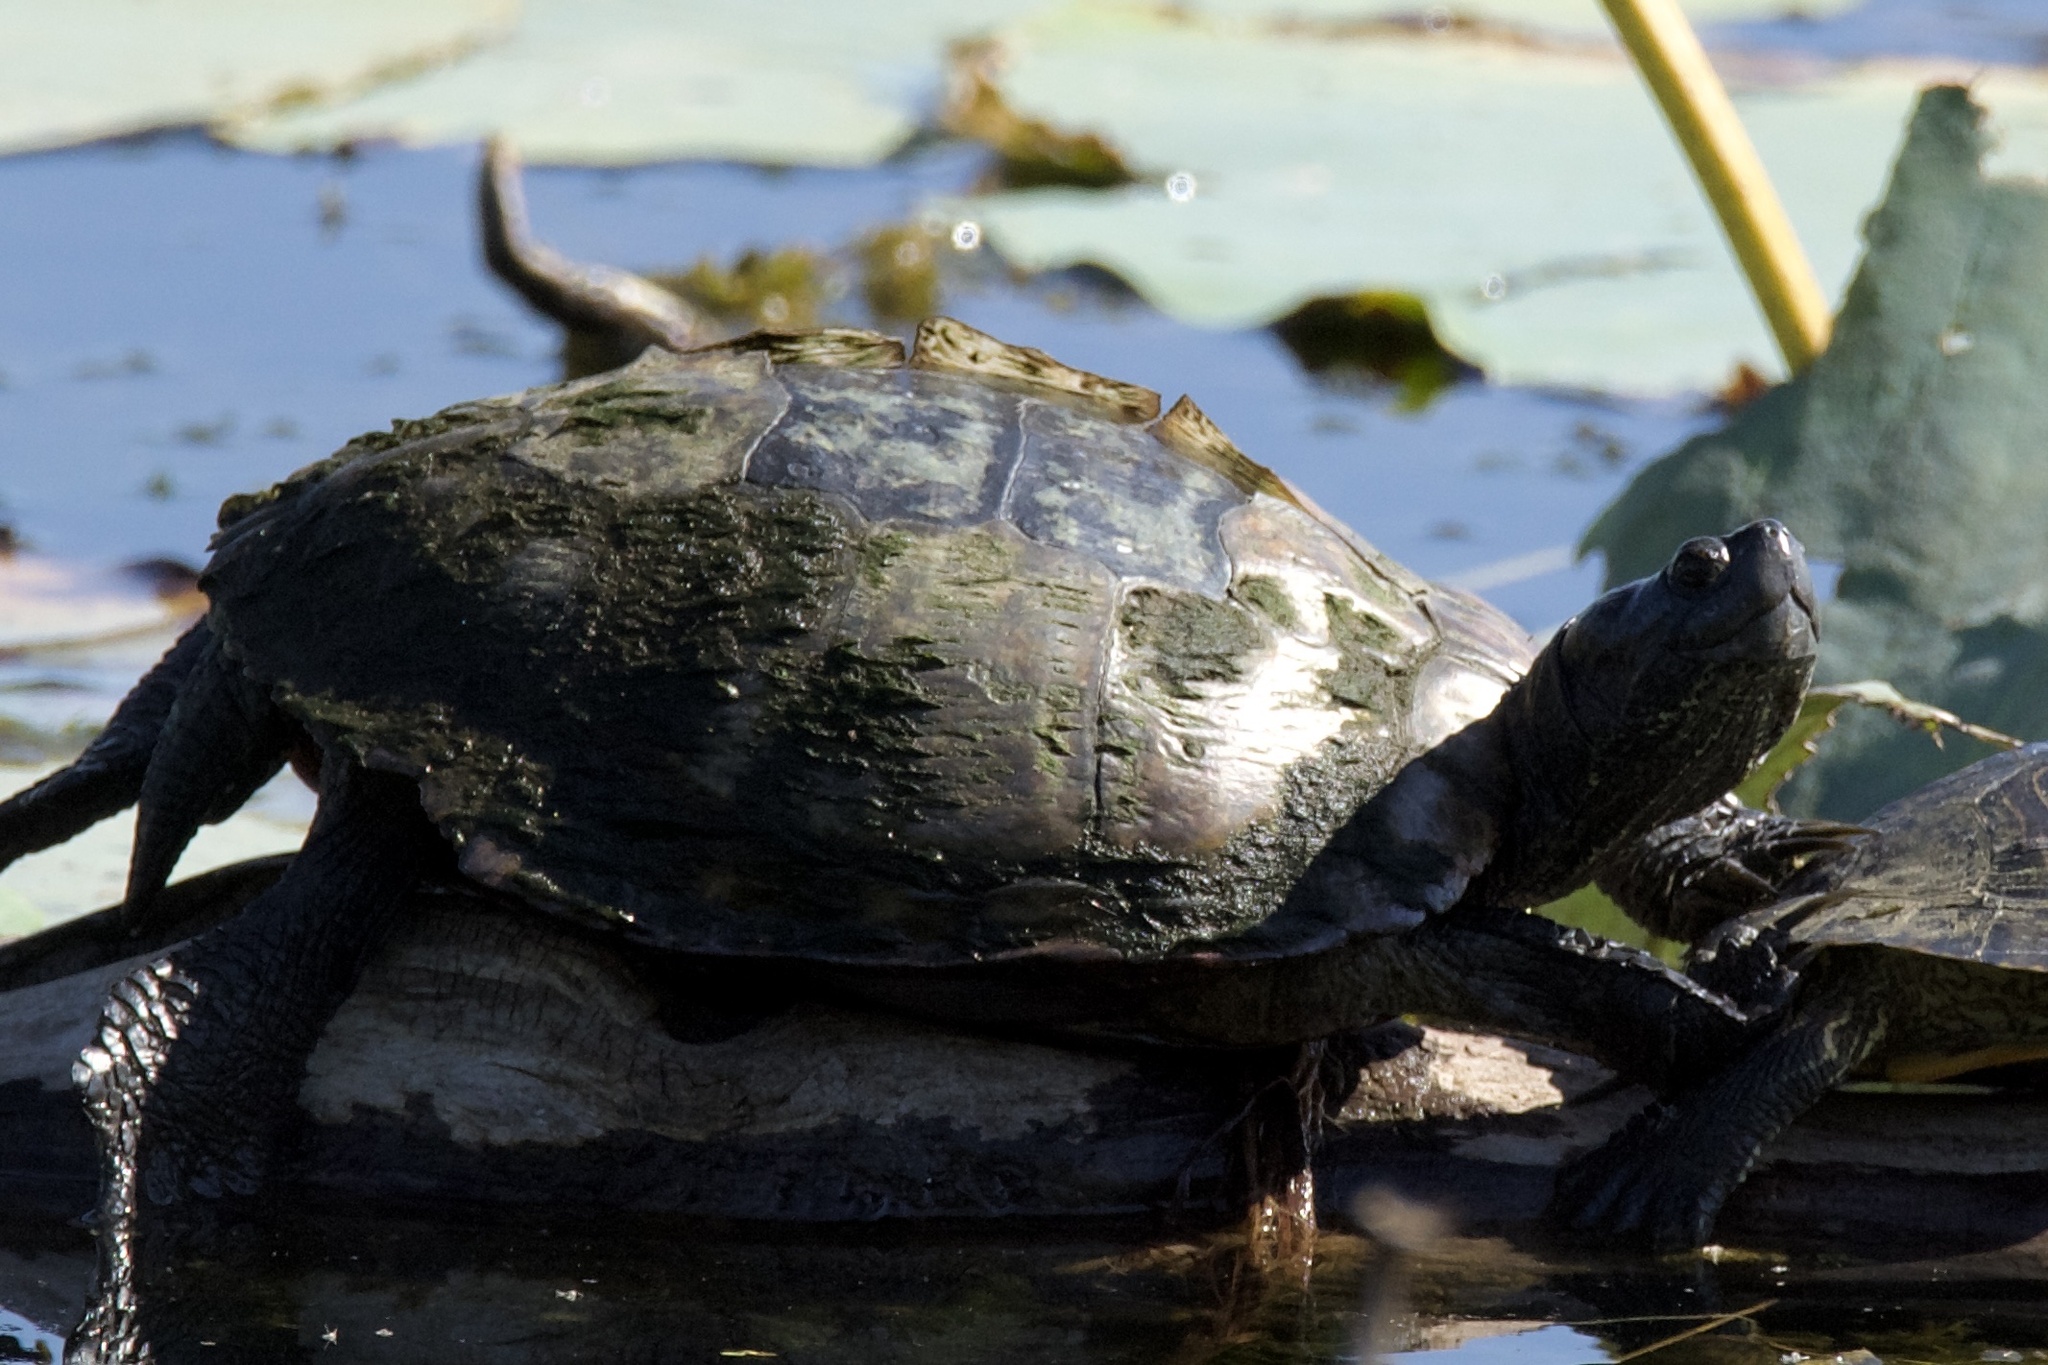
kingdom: Animalia
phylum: Chordata
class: Testudines
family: Emydidae
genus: Trachemys
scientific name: Trachemys scripta
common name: Slider
